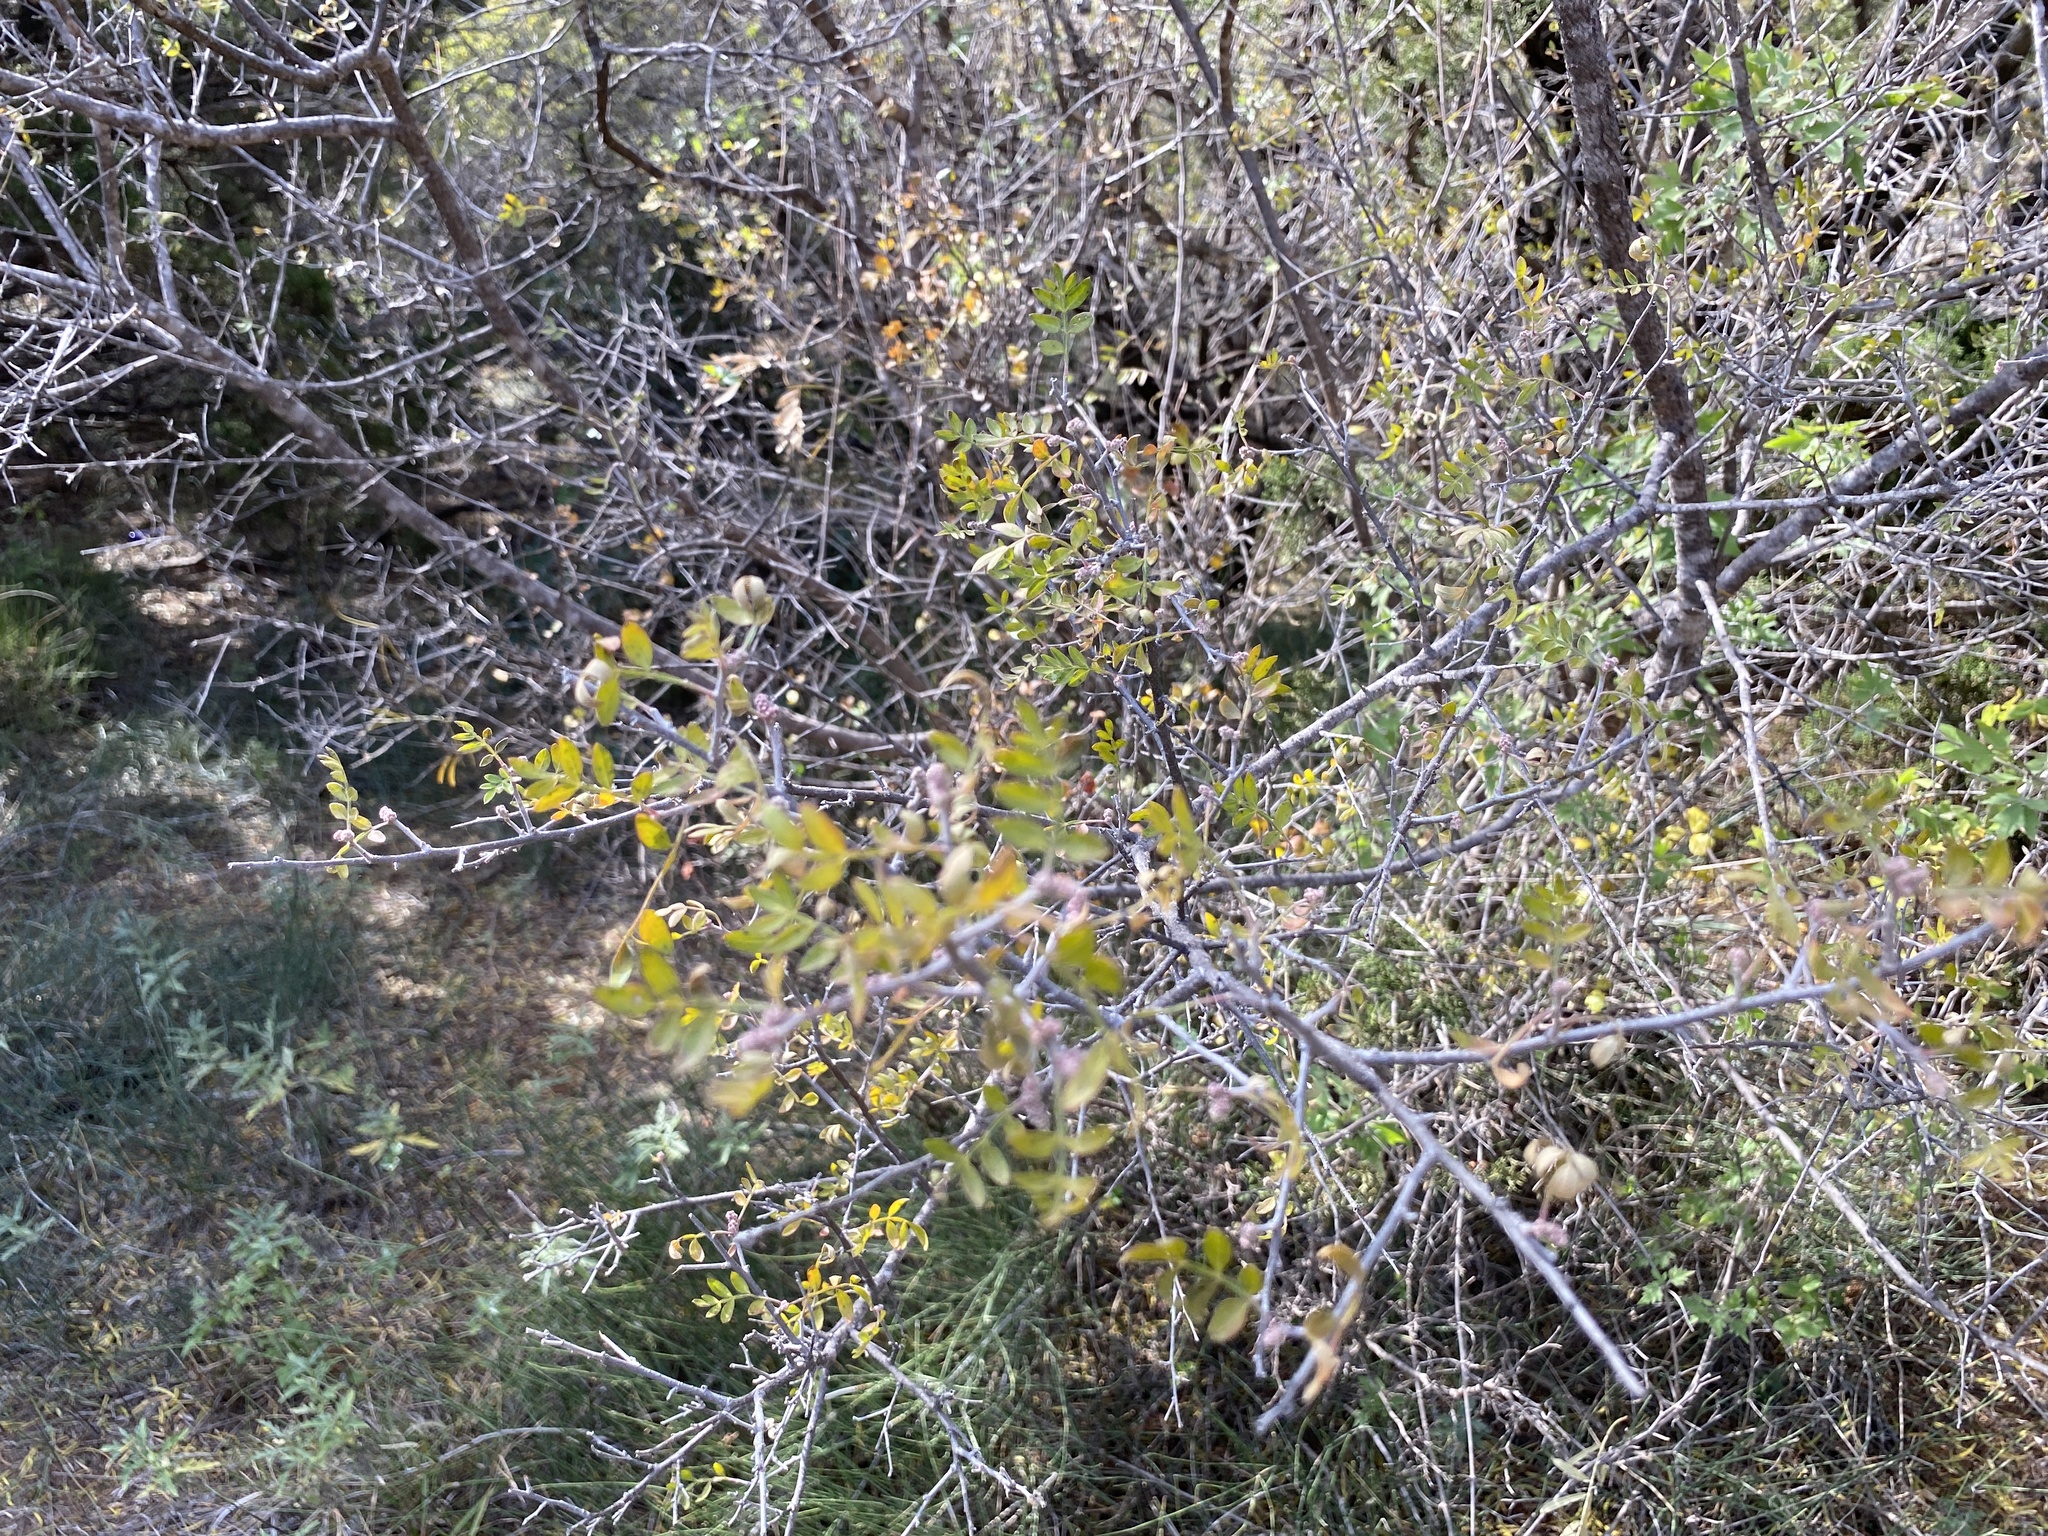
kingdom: Plantae
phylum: Tracheophyta
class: Magnoliopsida
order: Sapindales
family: Anacardiaceae
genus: Rhus
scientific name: Rhus microphylla
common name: Desert sumac
